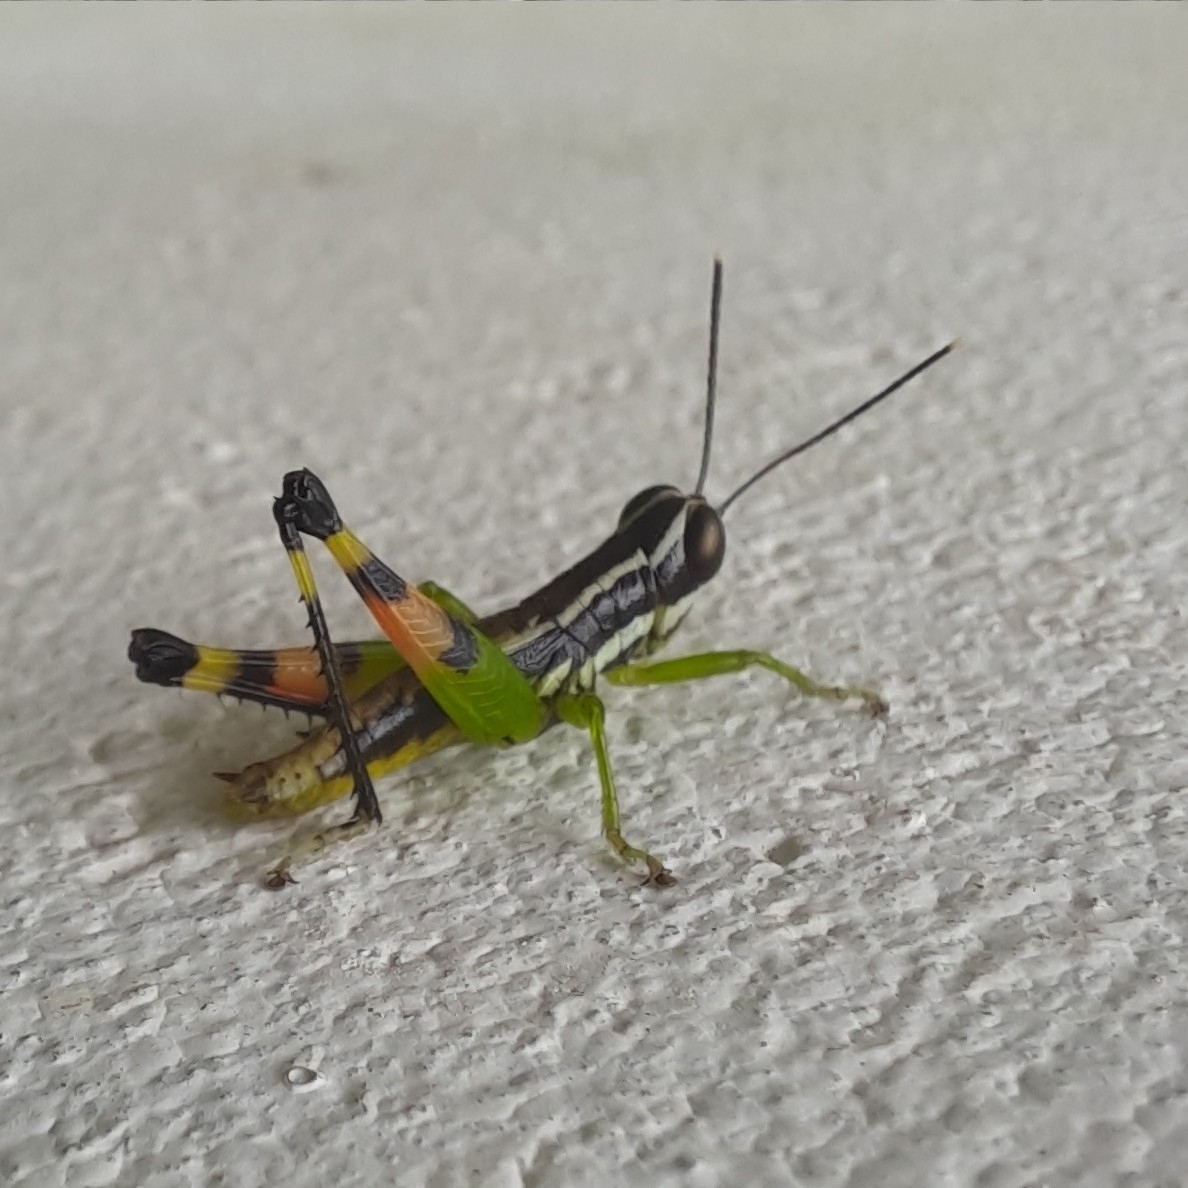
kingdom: Animalia
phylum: Arthropoda
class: Insecta
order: Orthoptera
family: Acrididae
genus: Chitaura
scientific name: Chitaura indica
